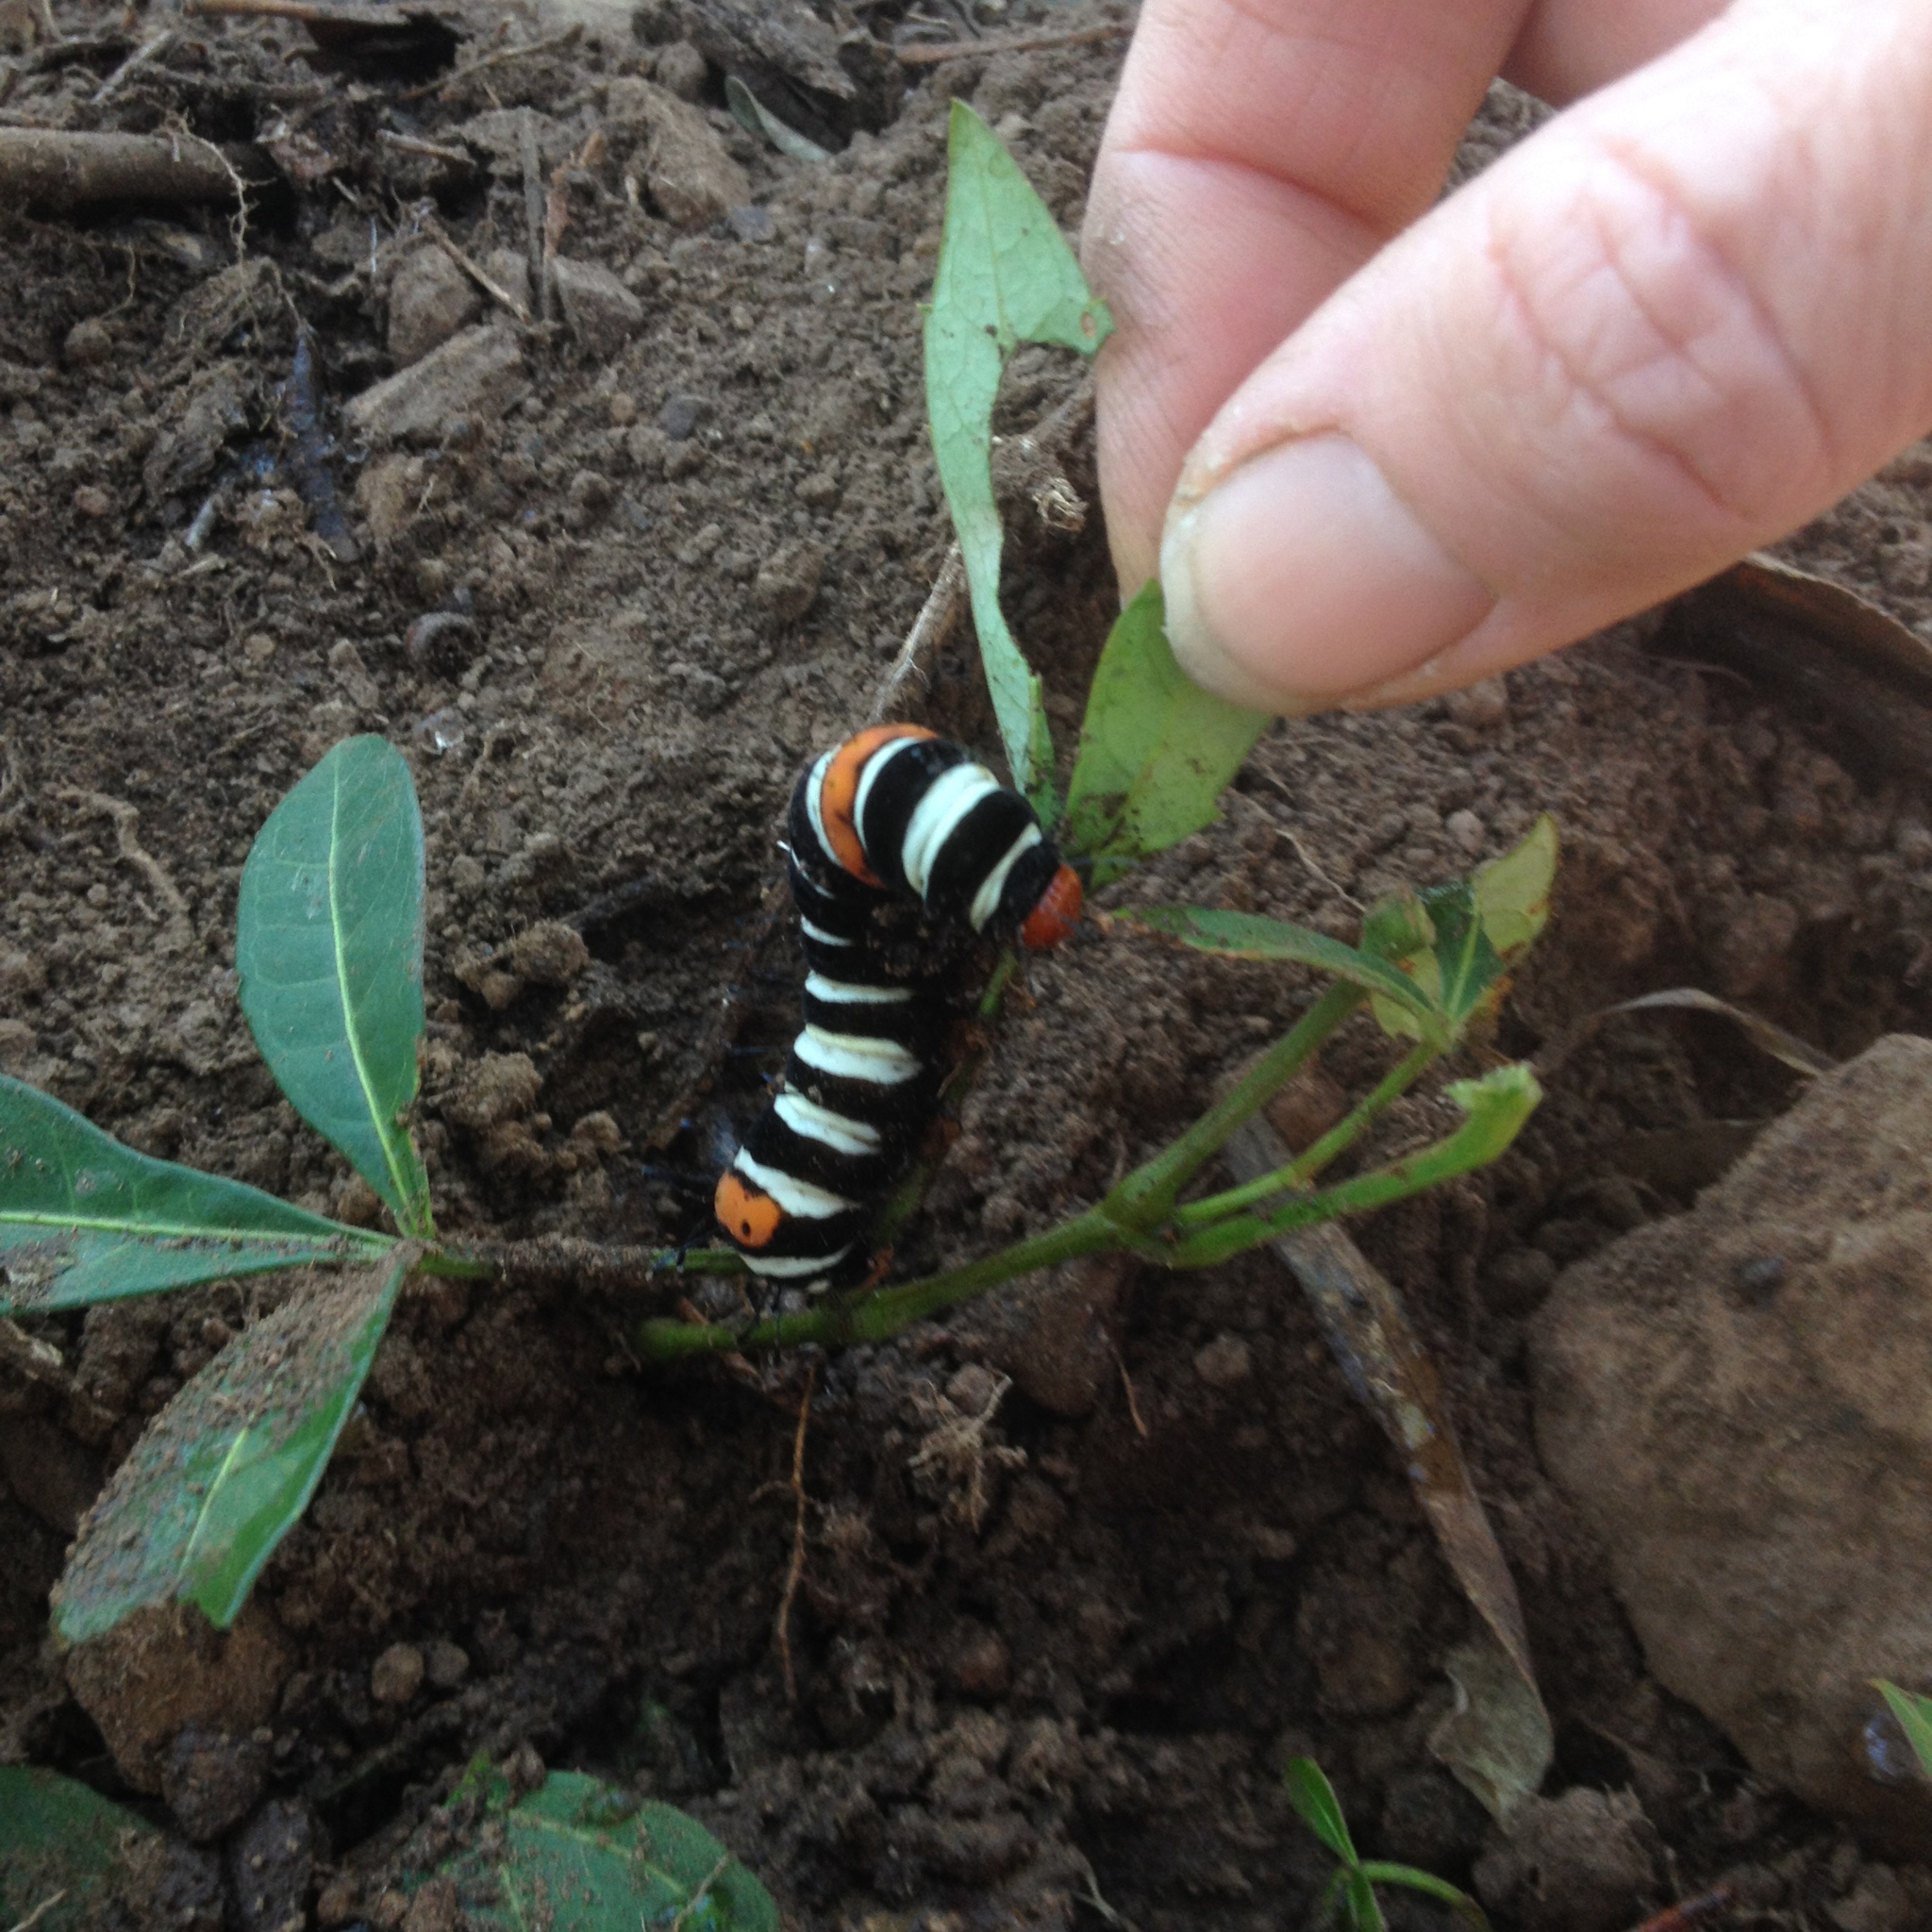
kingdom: Animalia
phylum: Arthropoda
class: Insecta
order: Lepidoptera
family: Noctuidae
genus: Agarista
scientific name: Agarista agricola
